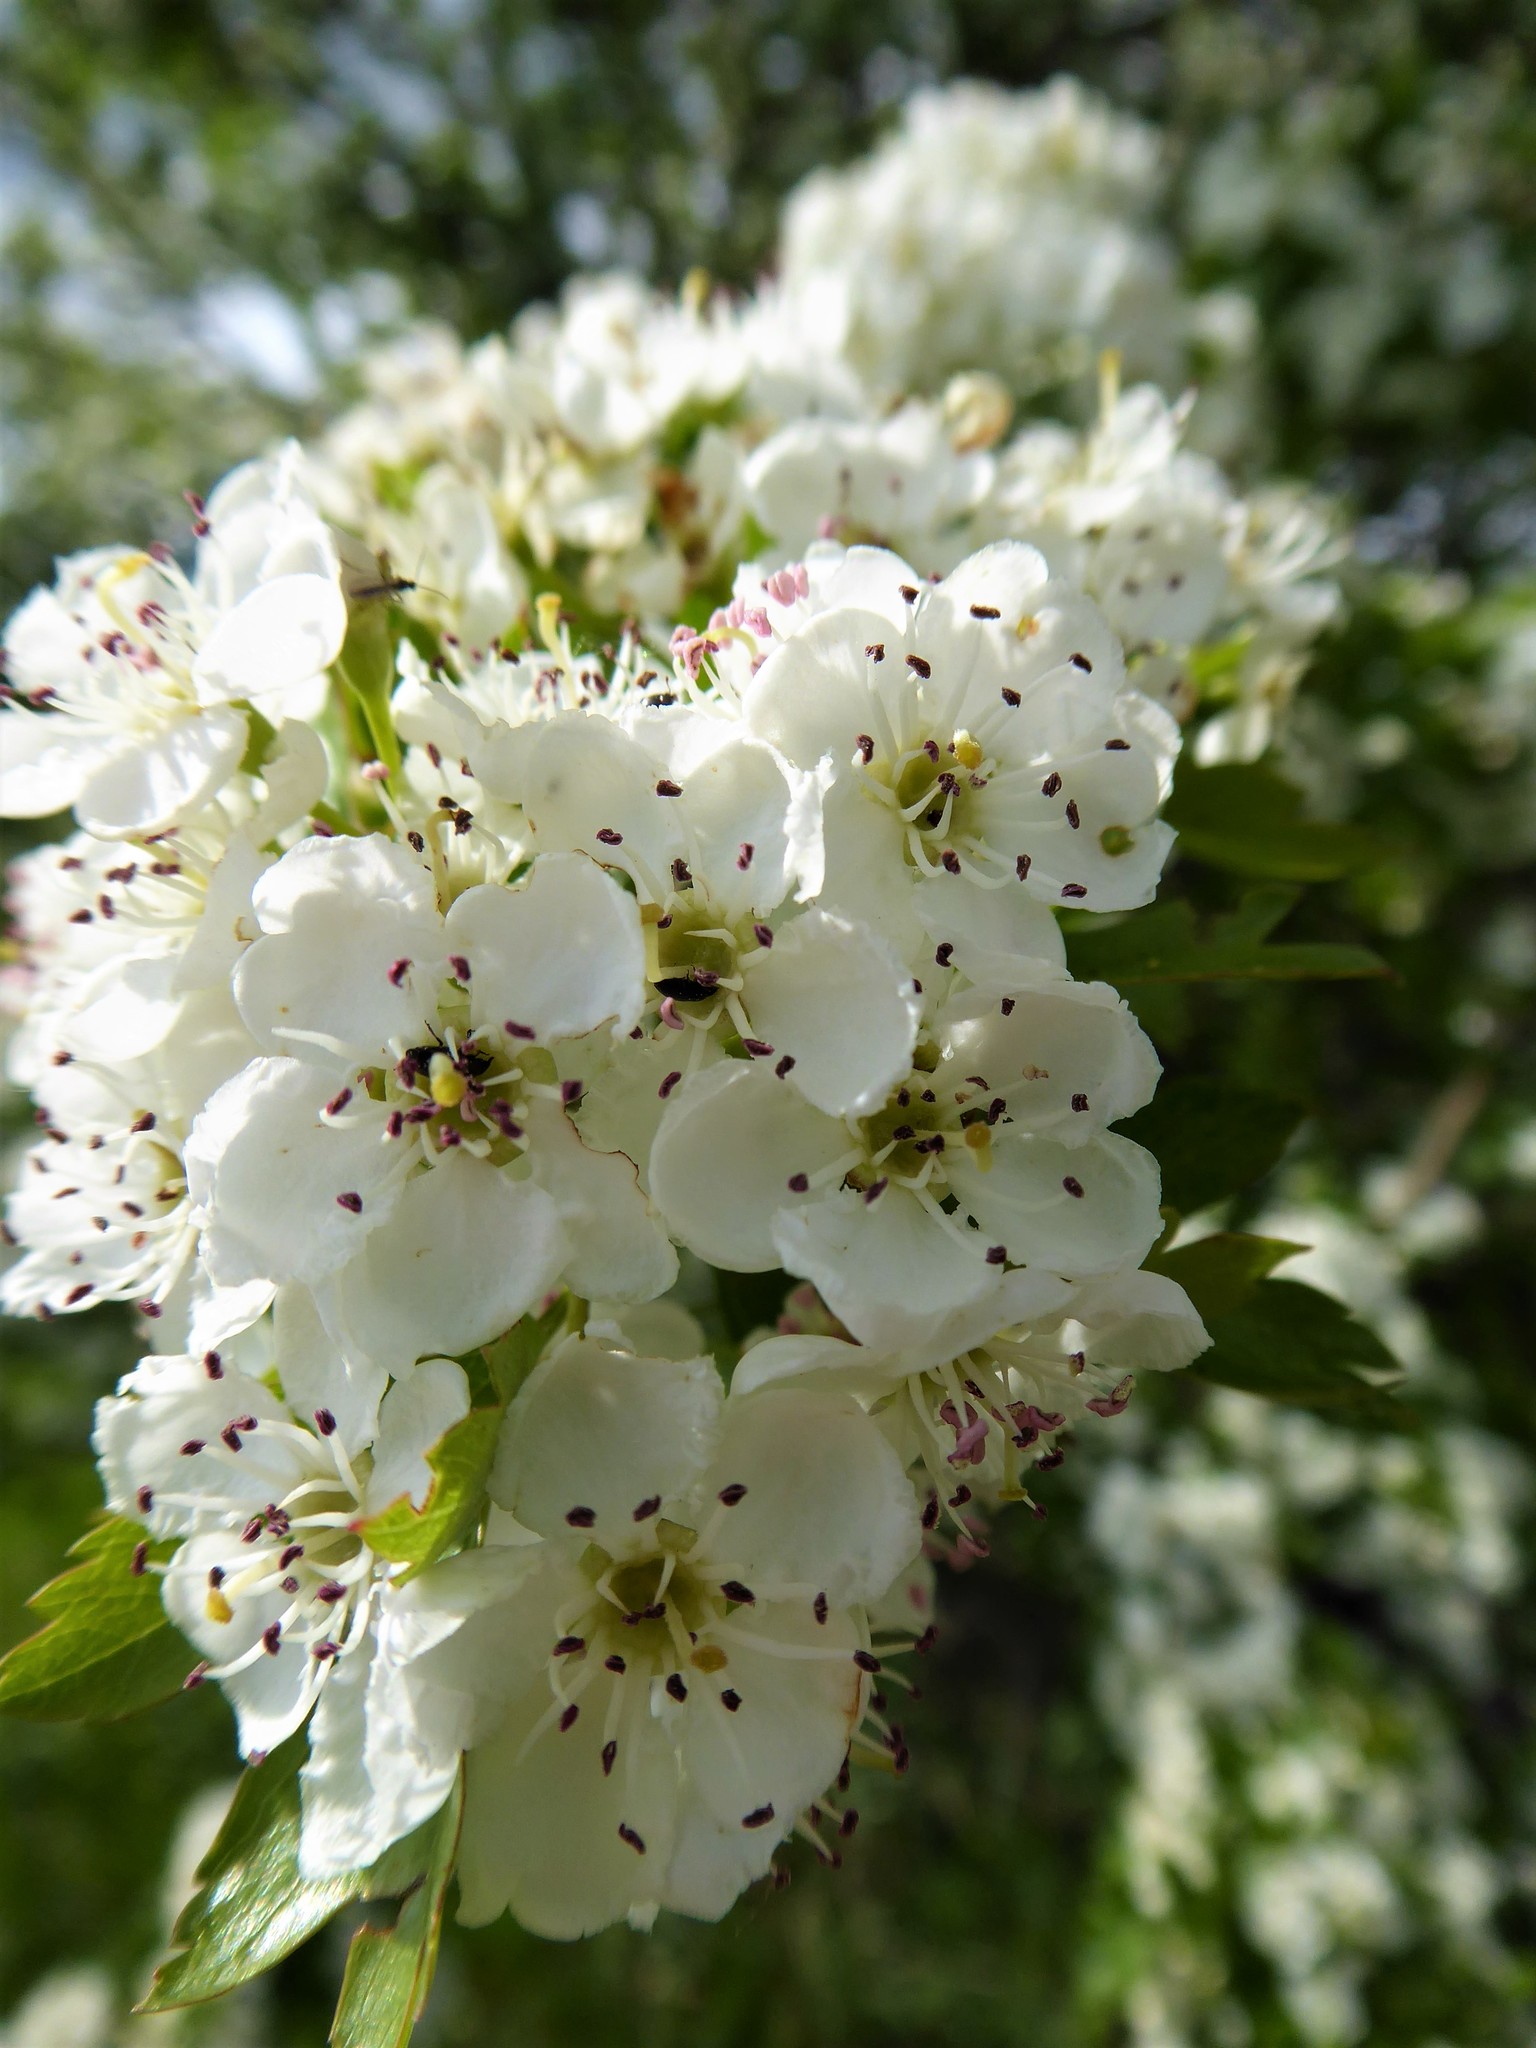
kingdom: Plantae
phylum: Tracheophyta
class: Magnoliopsida
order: Rosales
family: Rosaceae
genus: Crataegus
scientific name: Crataegus monogyna
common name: Hawthorn
